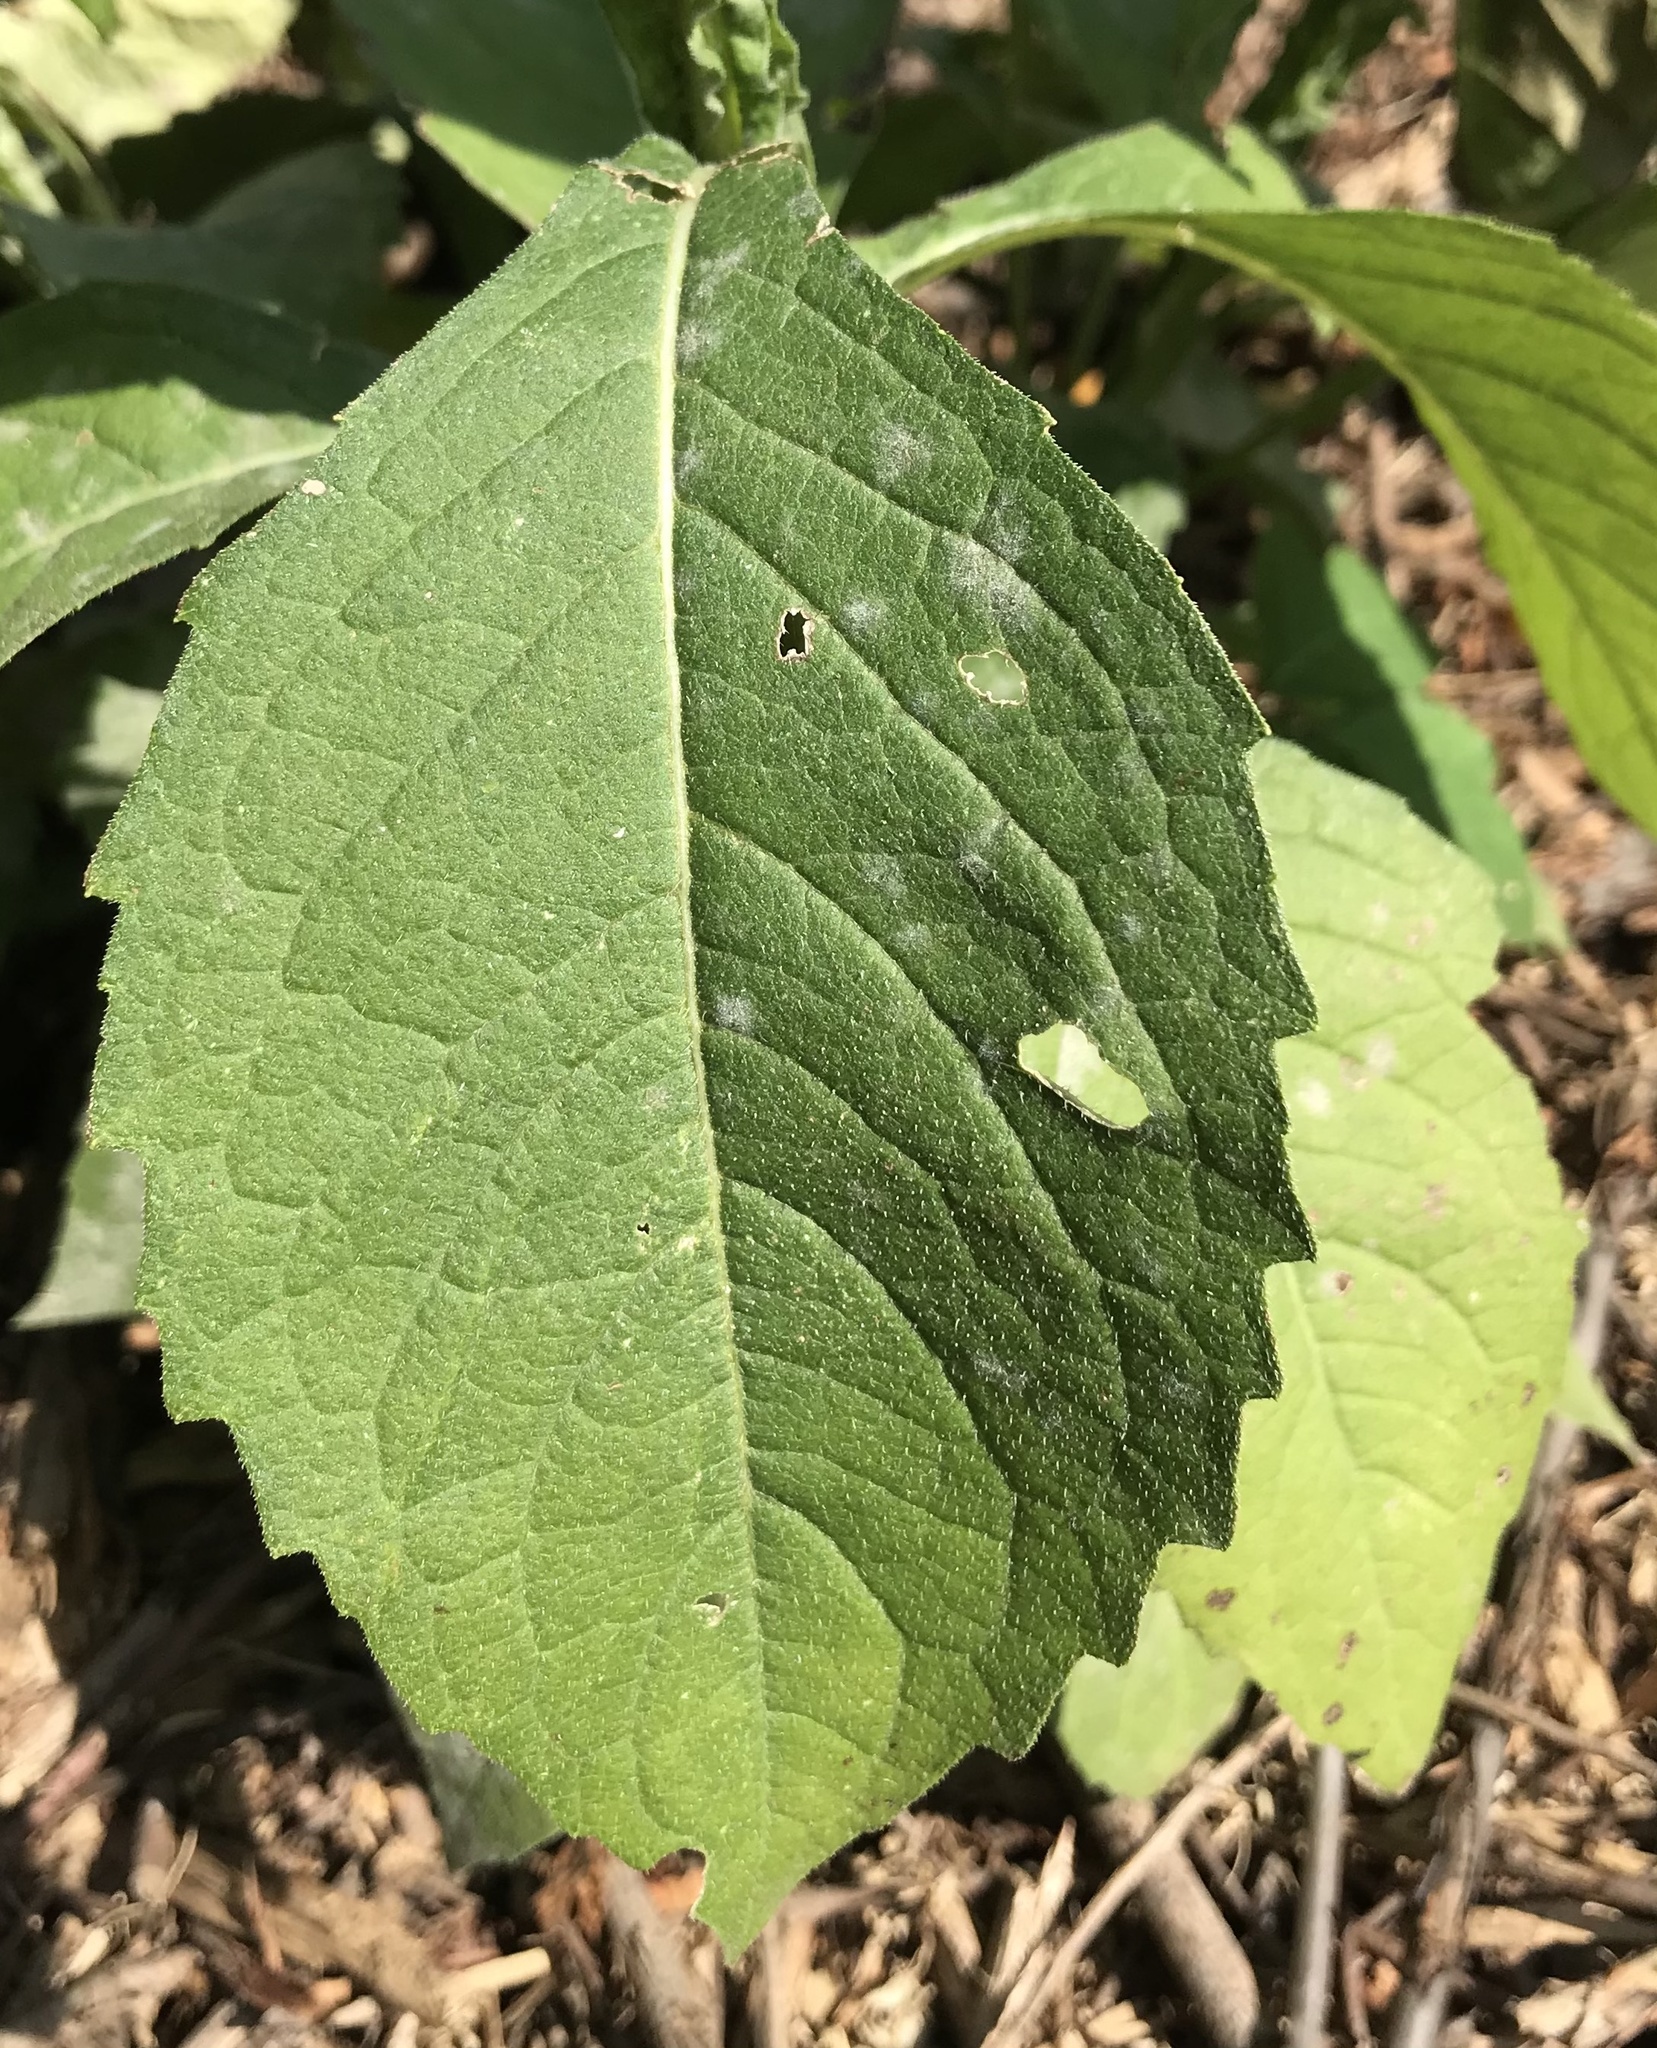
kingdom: Plantae
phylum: Tracheophyta
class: Magnoliopsida
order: Asterales
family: Asteraceae
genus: Verbesina
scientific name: Verbesina alternifolia
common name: Wingstem
